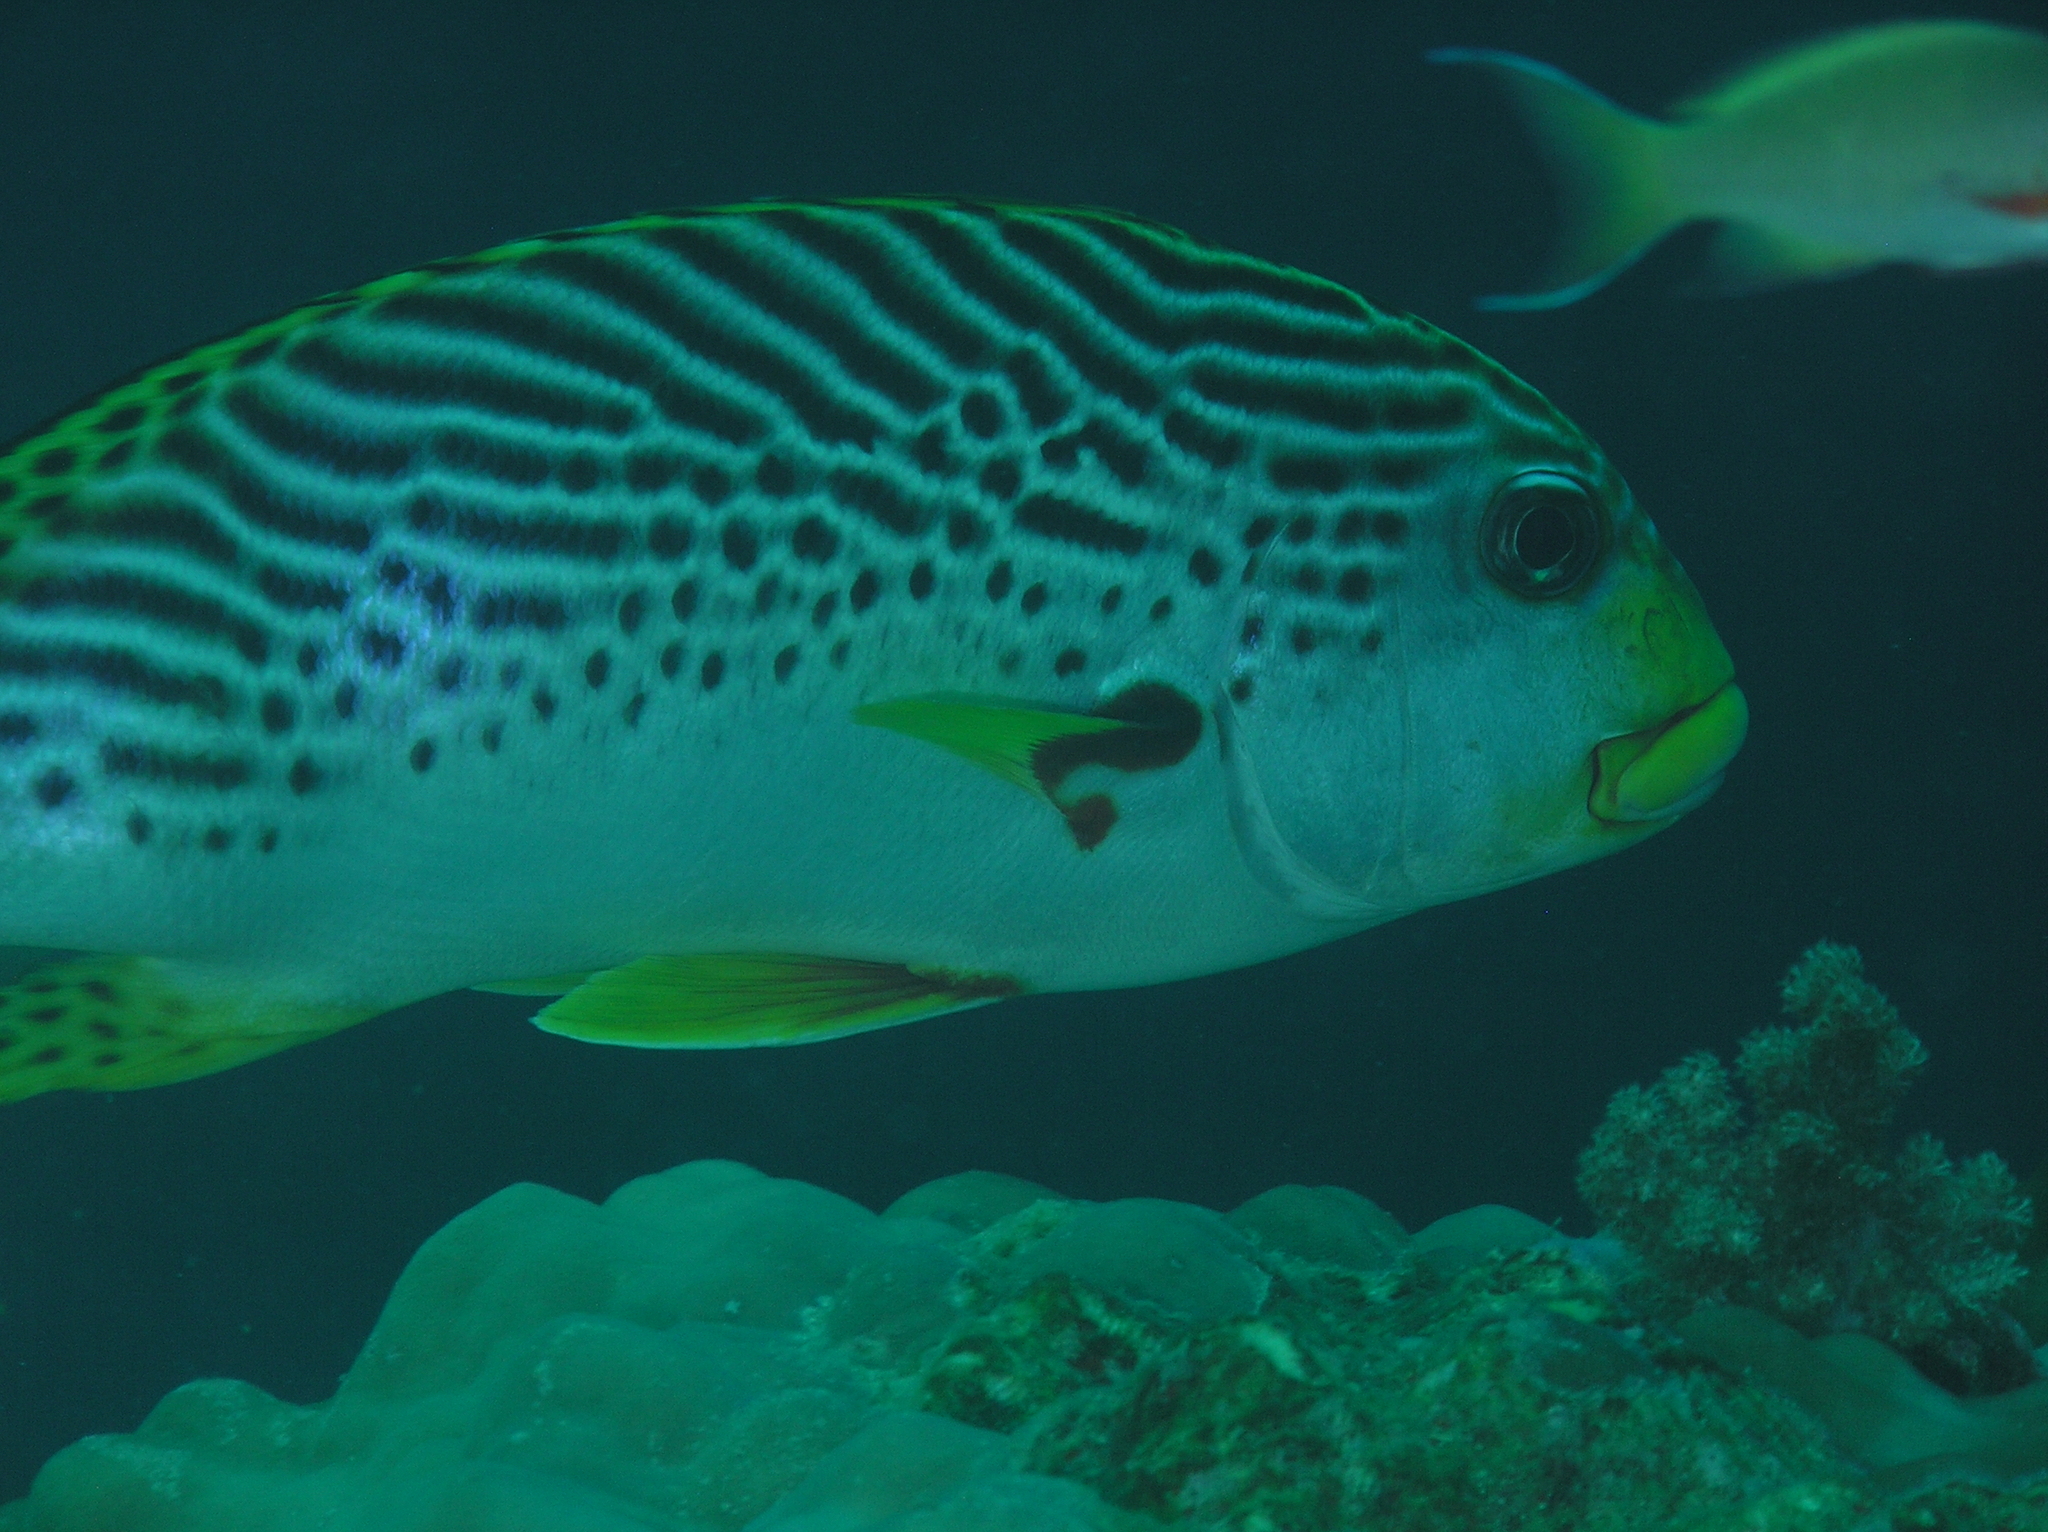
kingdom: Animalia
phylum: Chordata
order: Perciformes
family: Haemulidae
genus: Plectorhinchus
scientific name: Plectorhinchus lineatus
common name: Goldman's sweetlips
